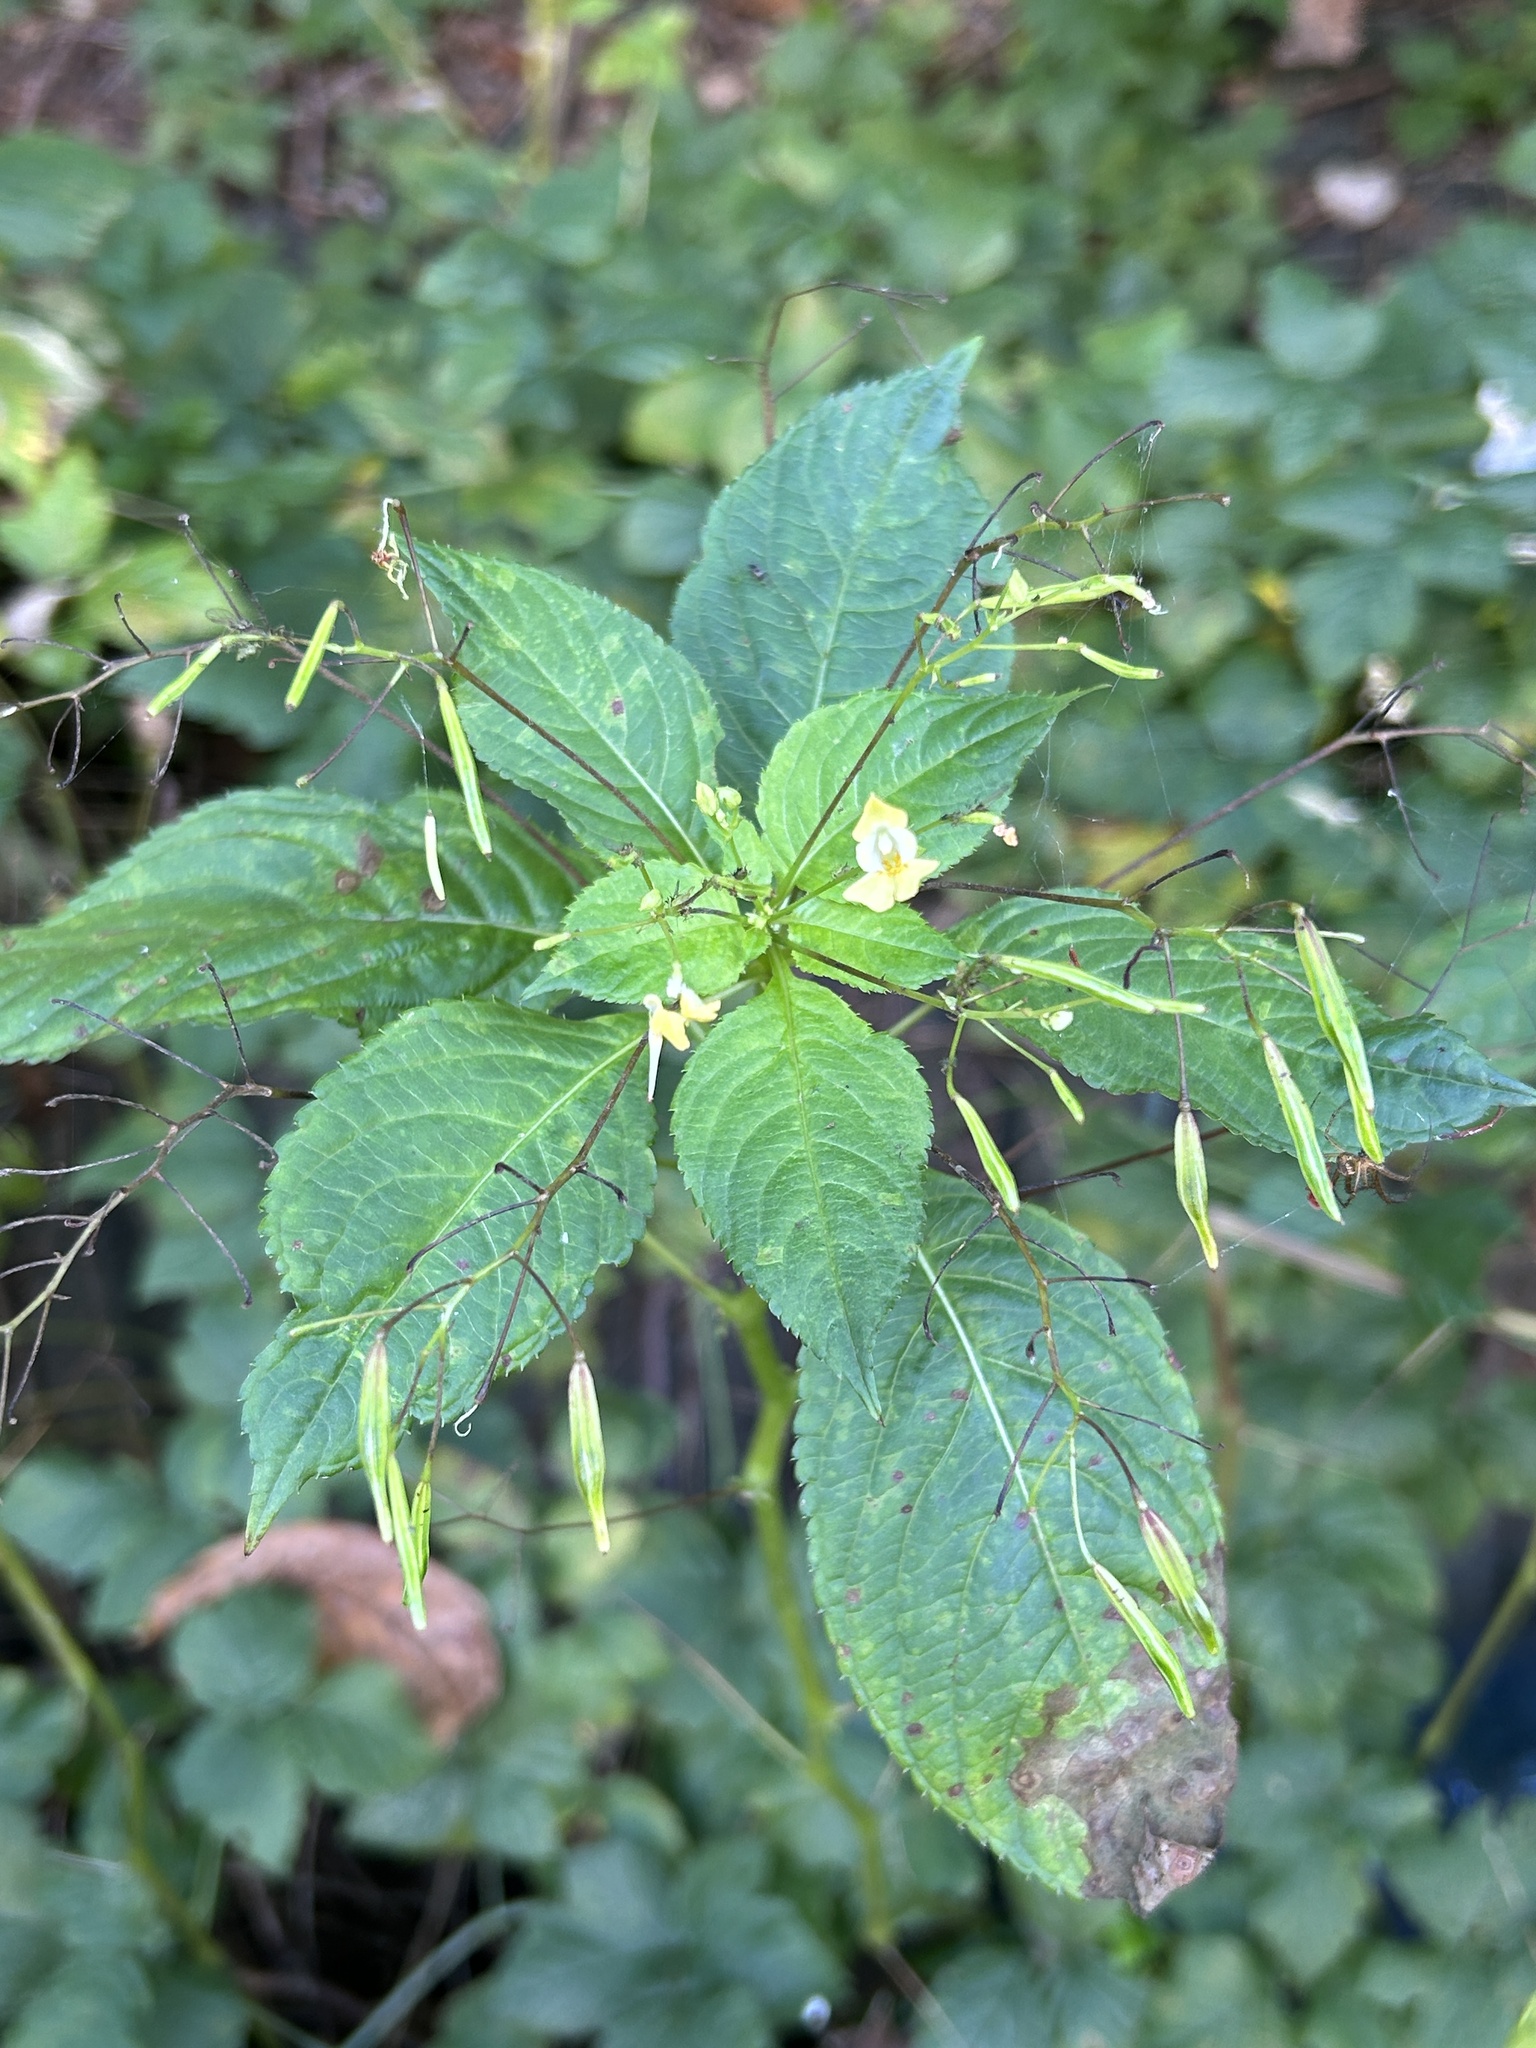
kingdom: Plantae
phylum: Tracheophyta
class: Magnoliopsida
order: Ericales
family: Balsaminaceae
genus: Impatiens
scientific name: Impatiens parviflora
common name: Small balsam
